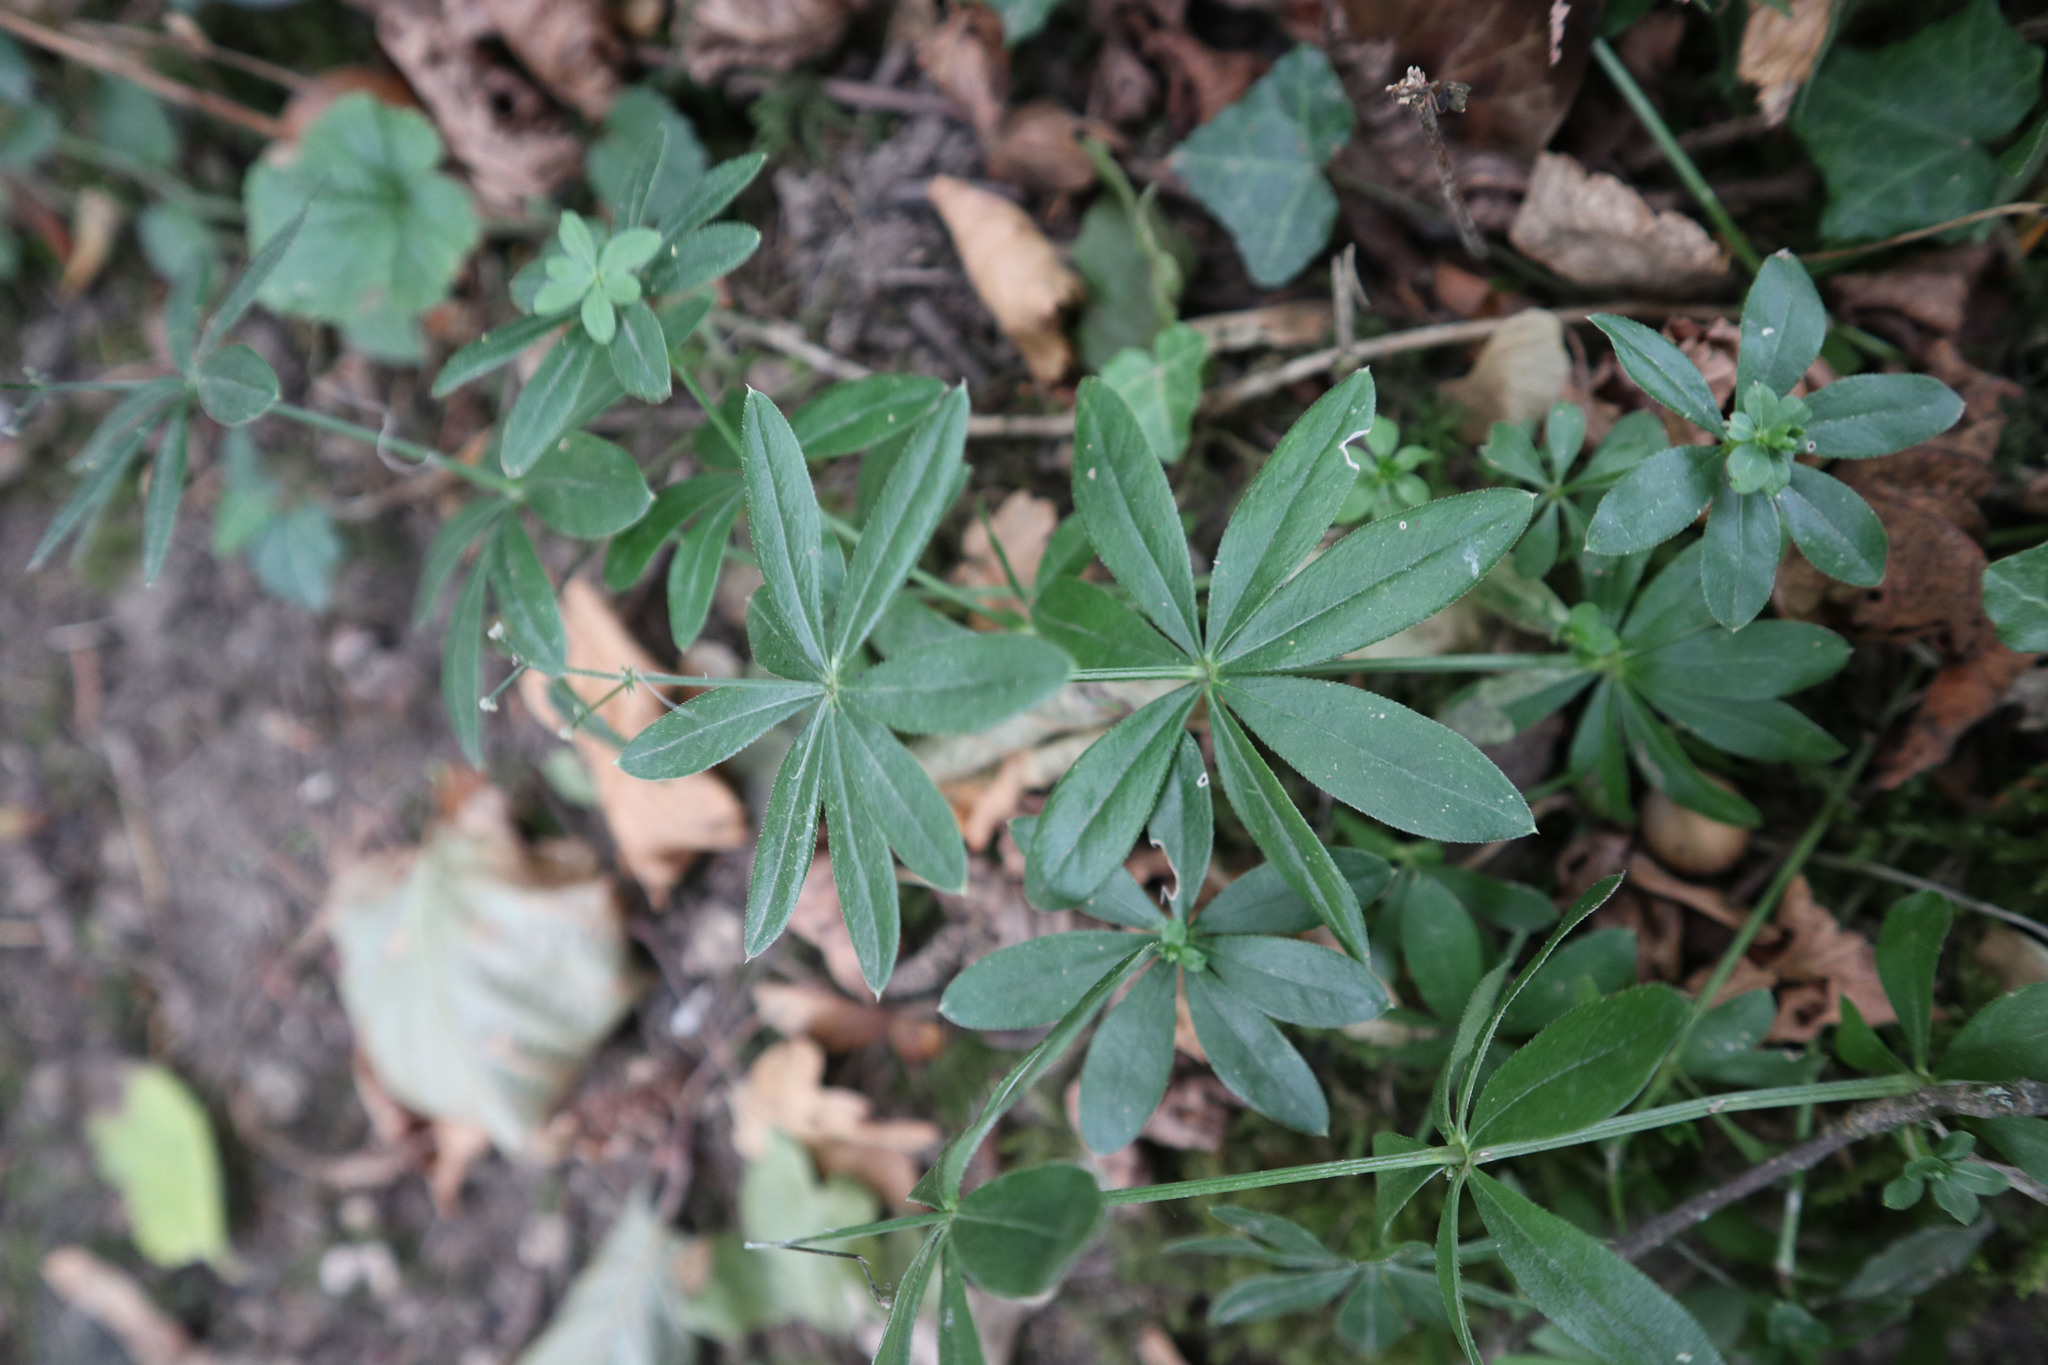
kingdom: Plantae
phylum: Tracheophyta
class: Magnoliopsida
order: Gentianales
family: Rubiaceae
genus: Galium
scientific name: Galium odoratum
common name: Sweet woodruff
